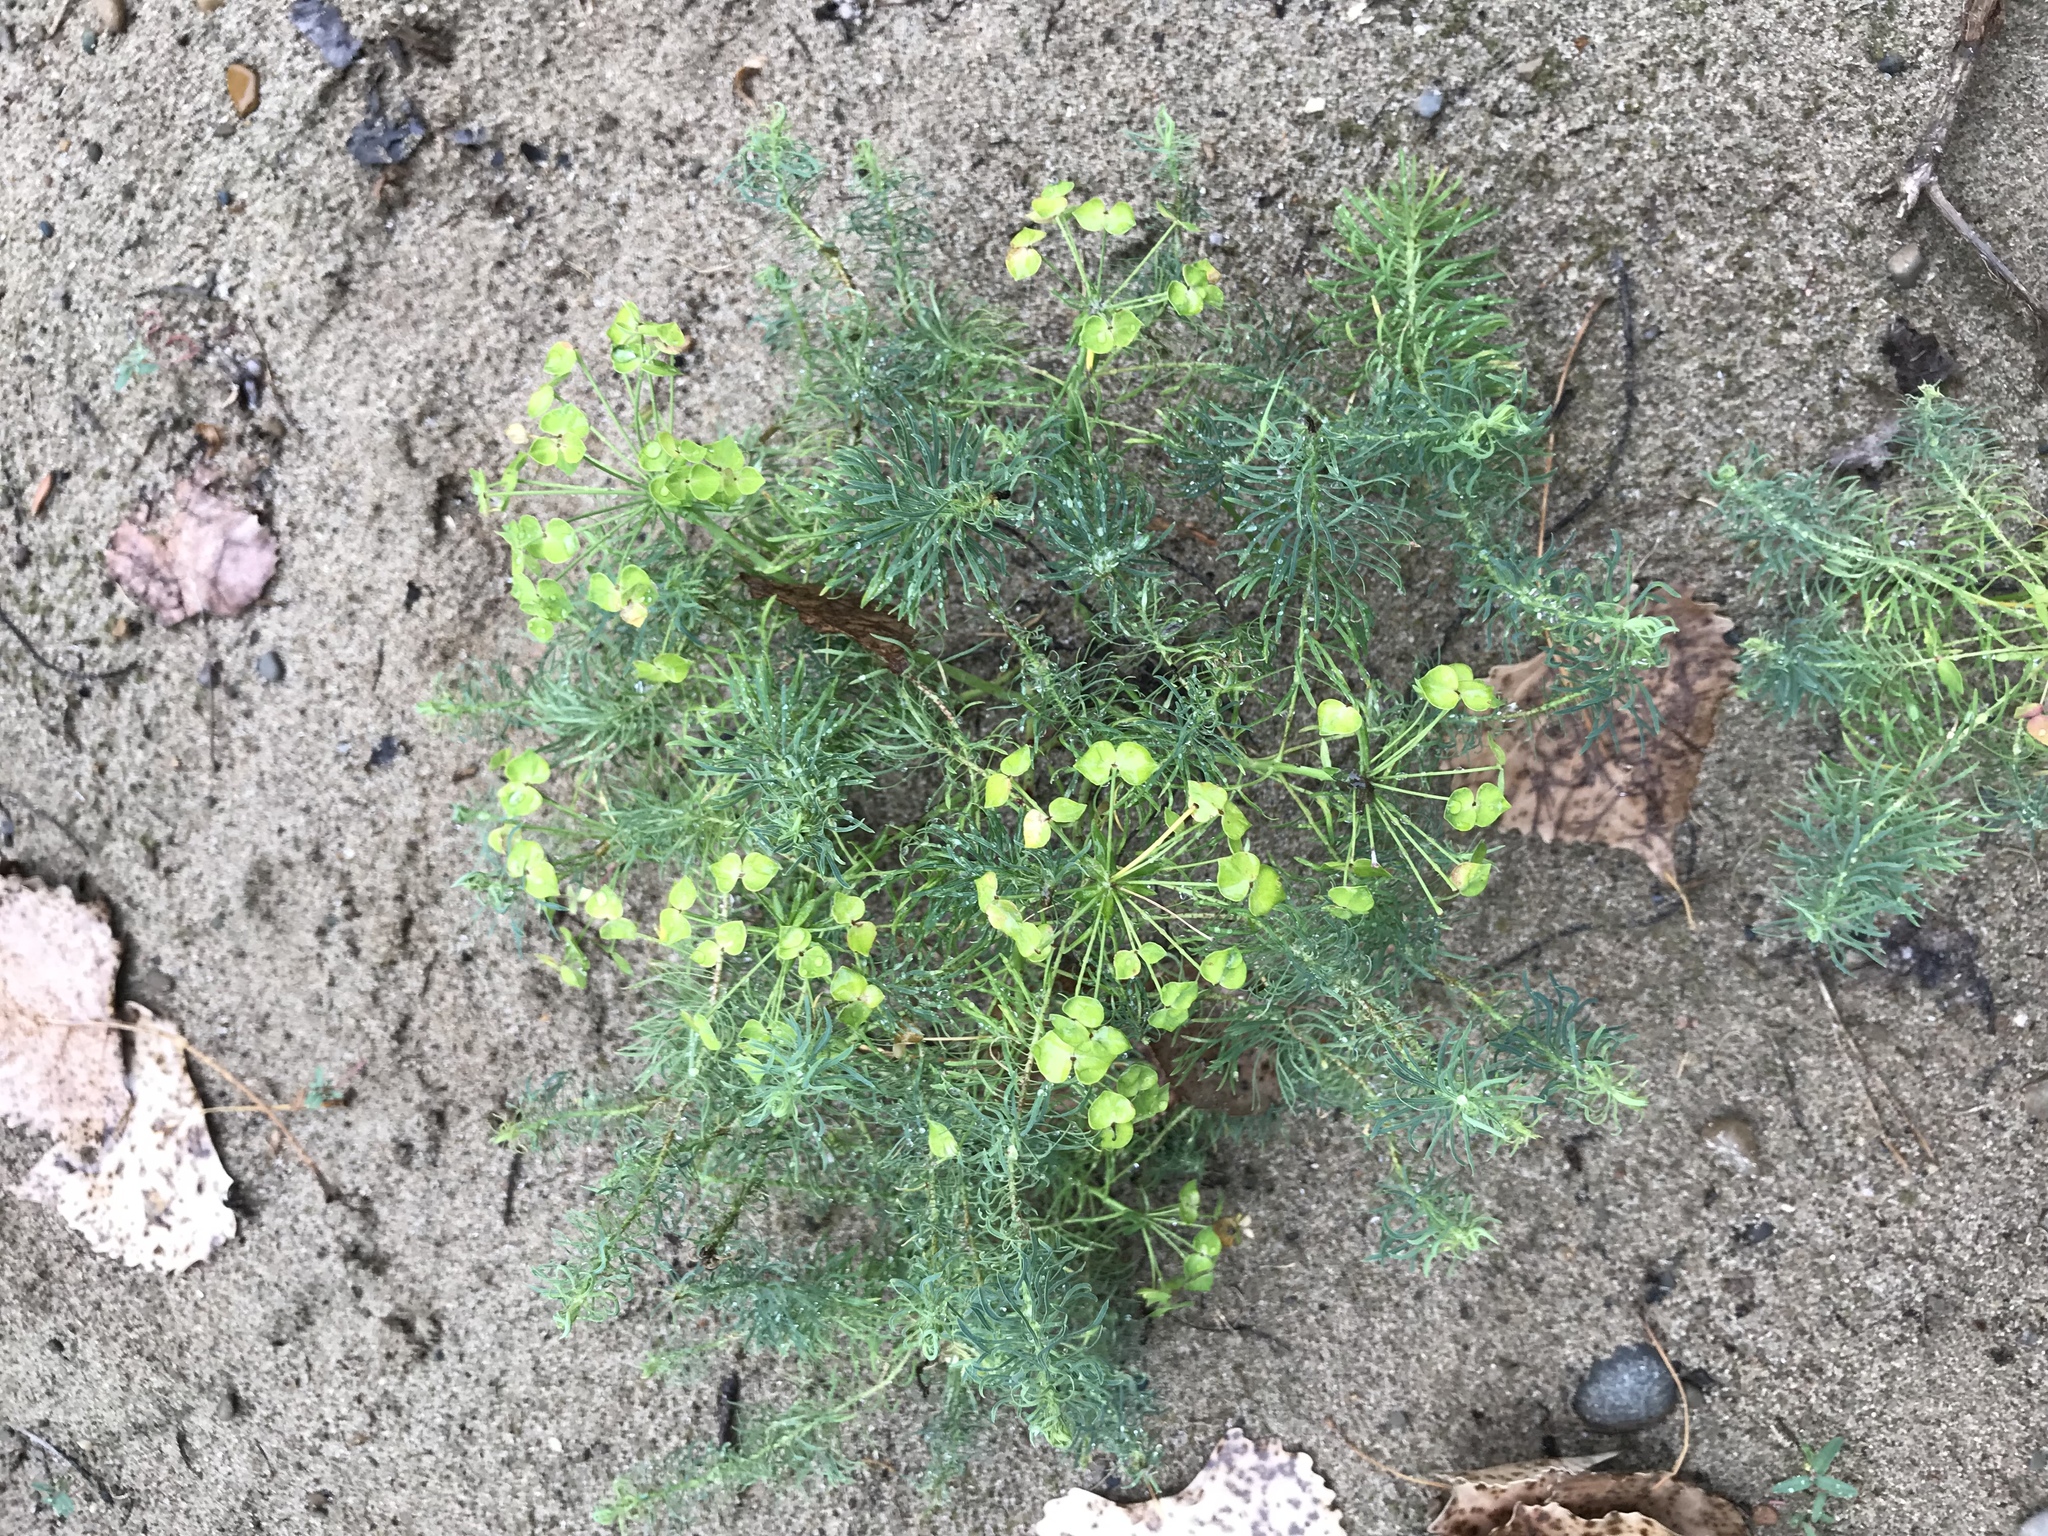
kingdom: Plantae
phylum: Tracheophyta
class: Magnoliopsida
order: Malpighiales
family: Euphorbiaceae
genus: Euphorbia
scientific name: Euphorbia cyparissias
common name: Cypress spurge
